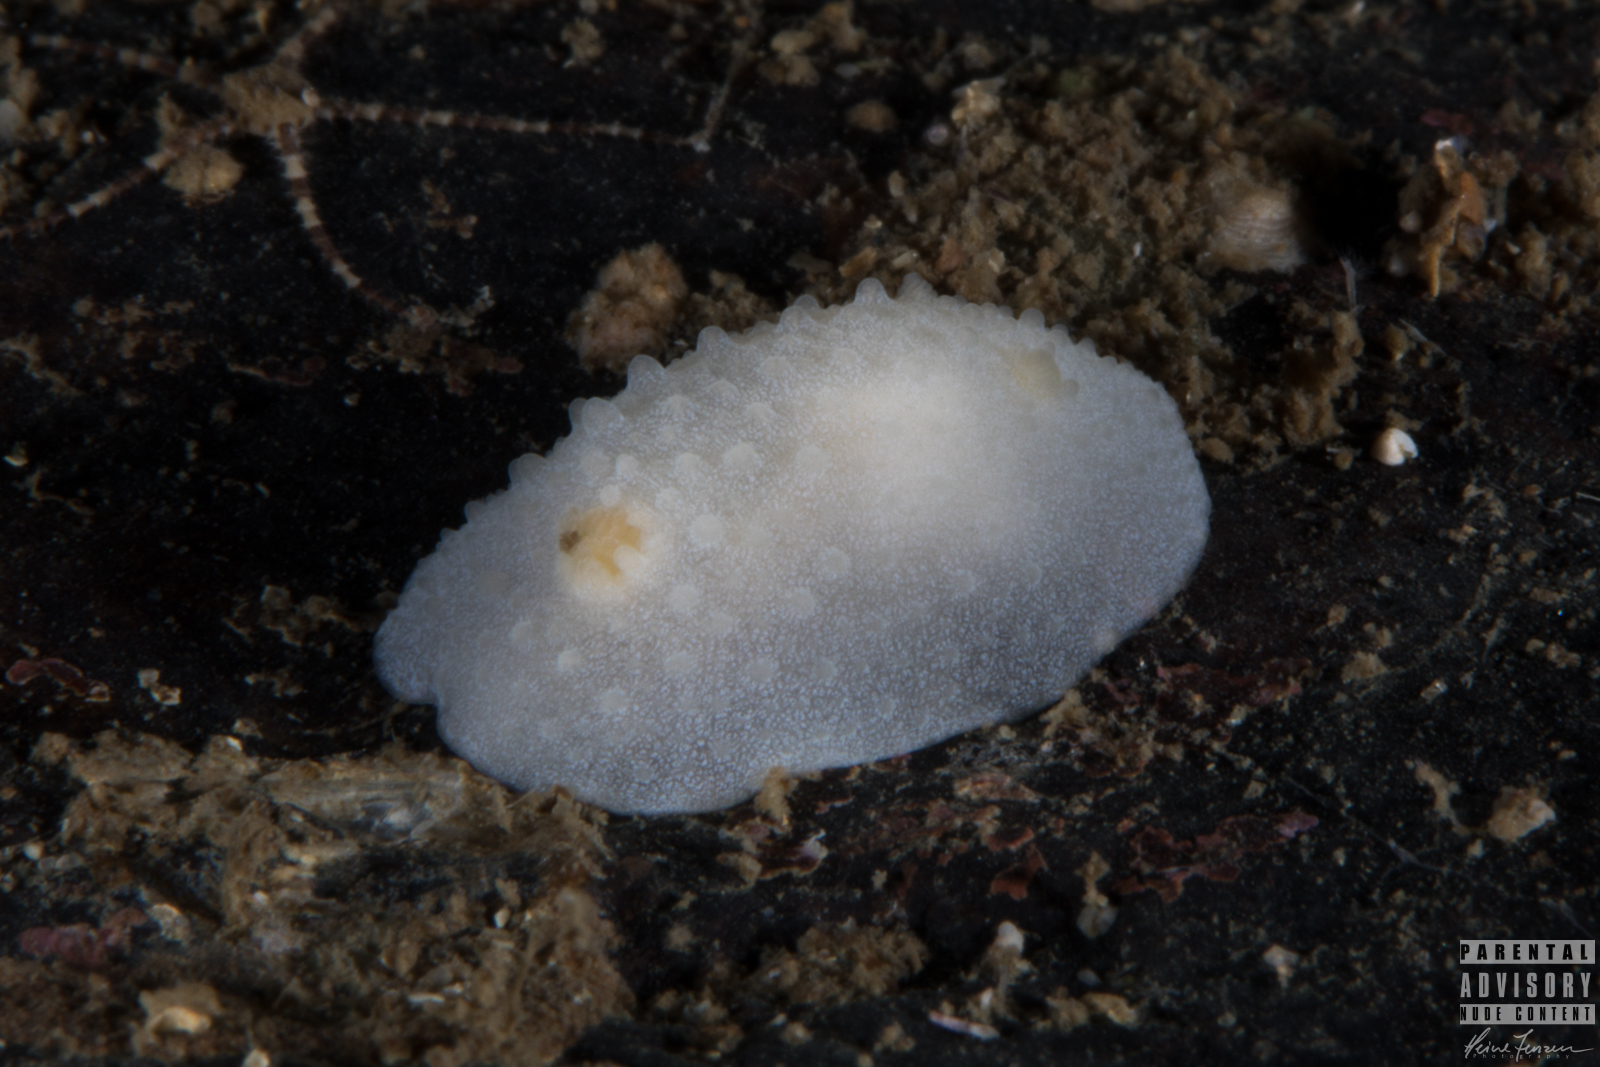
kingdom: Animalia
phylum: Mollusca
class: Gastropoda
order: Nudibranchia
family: Cadlinidae
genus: Aldisa
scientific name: Aldisa zetlandica
